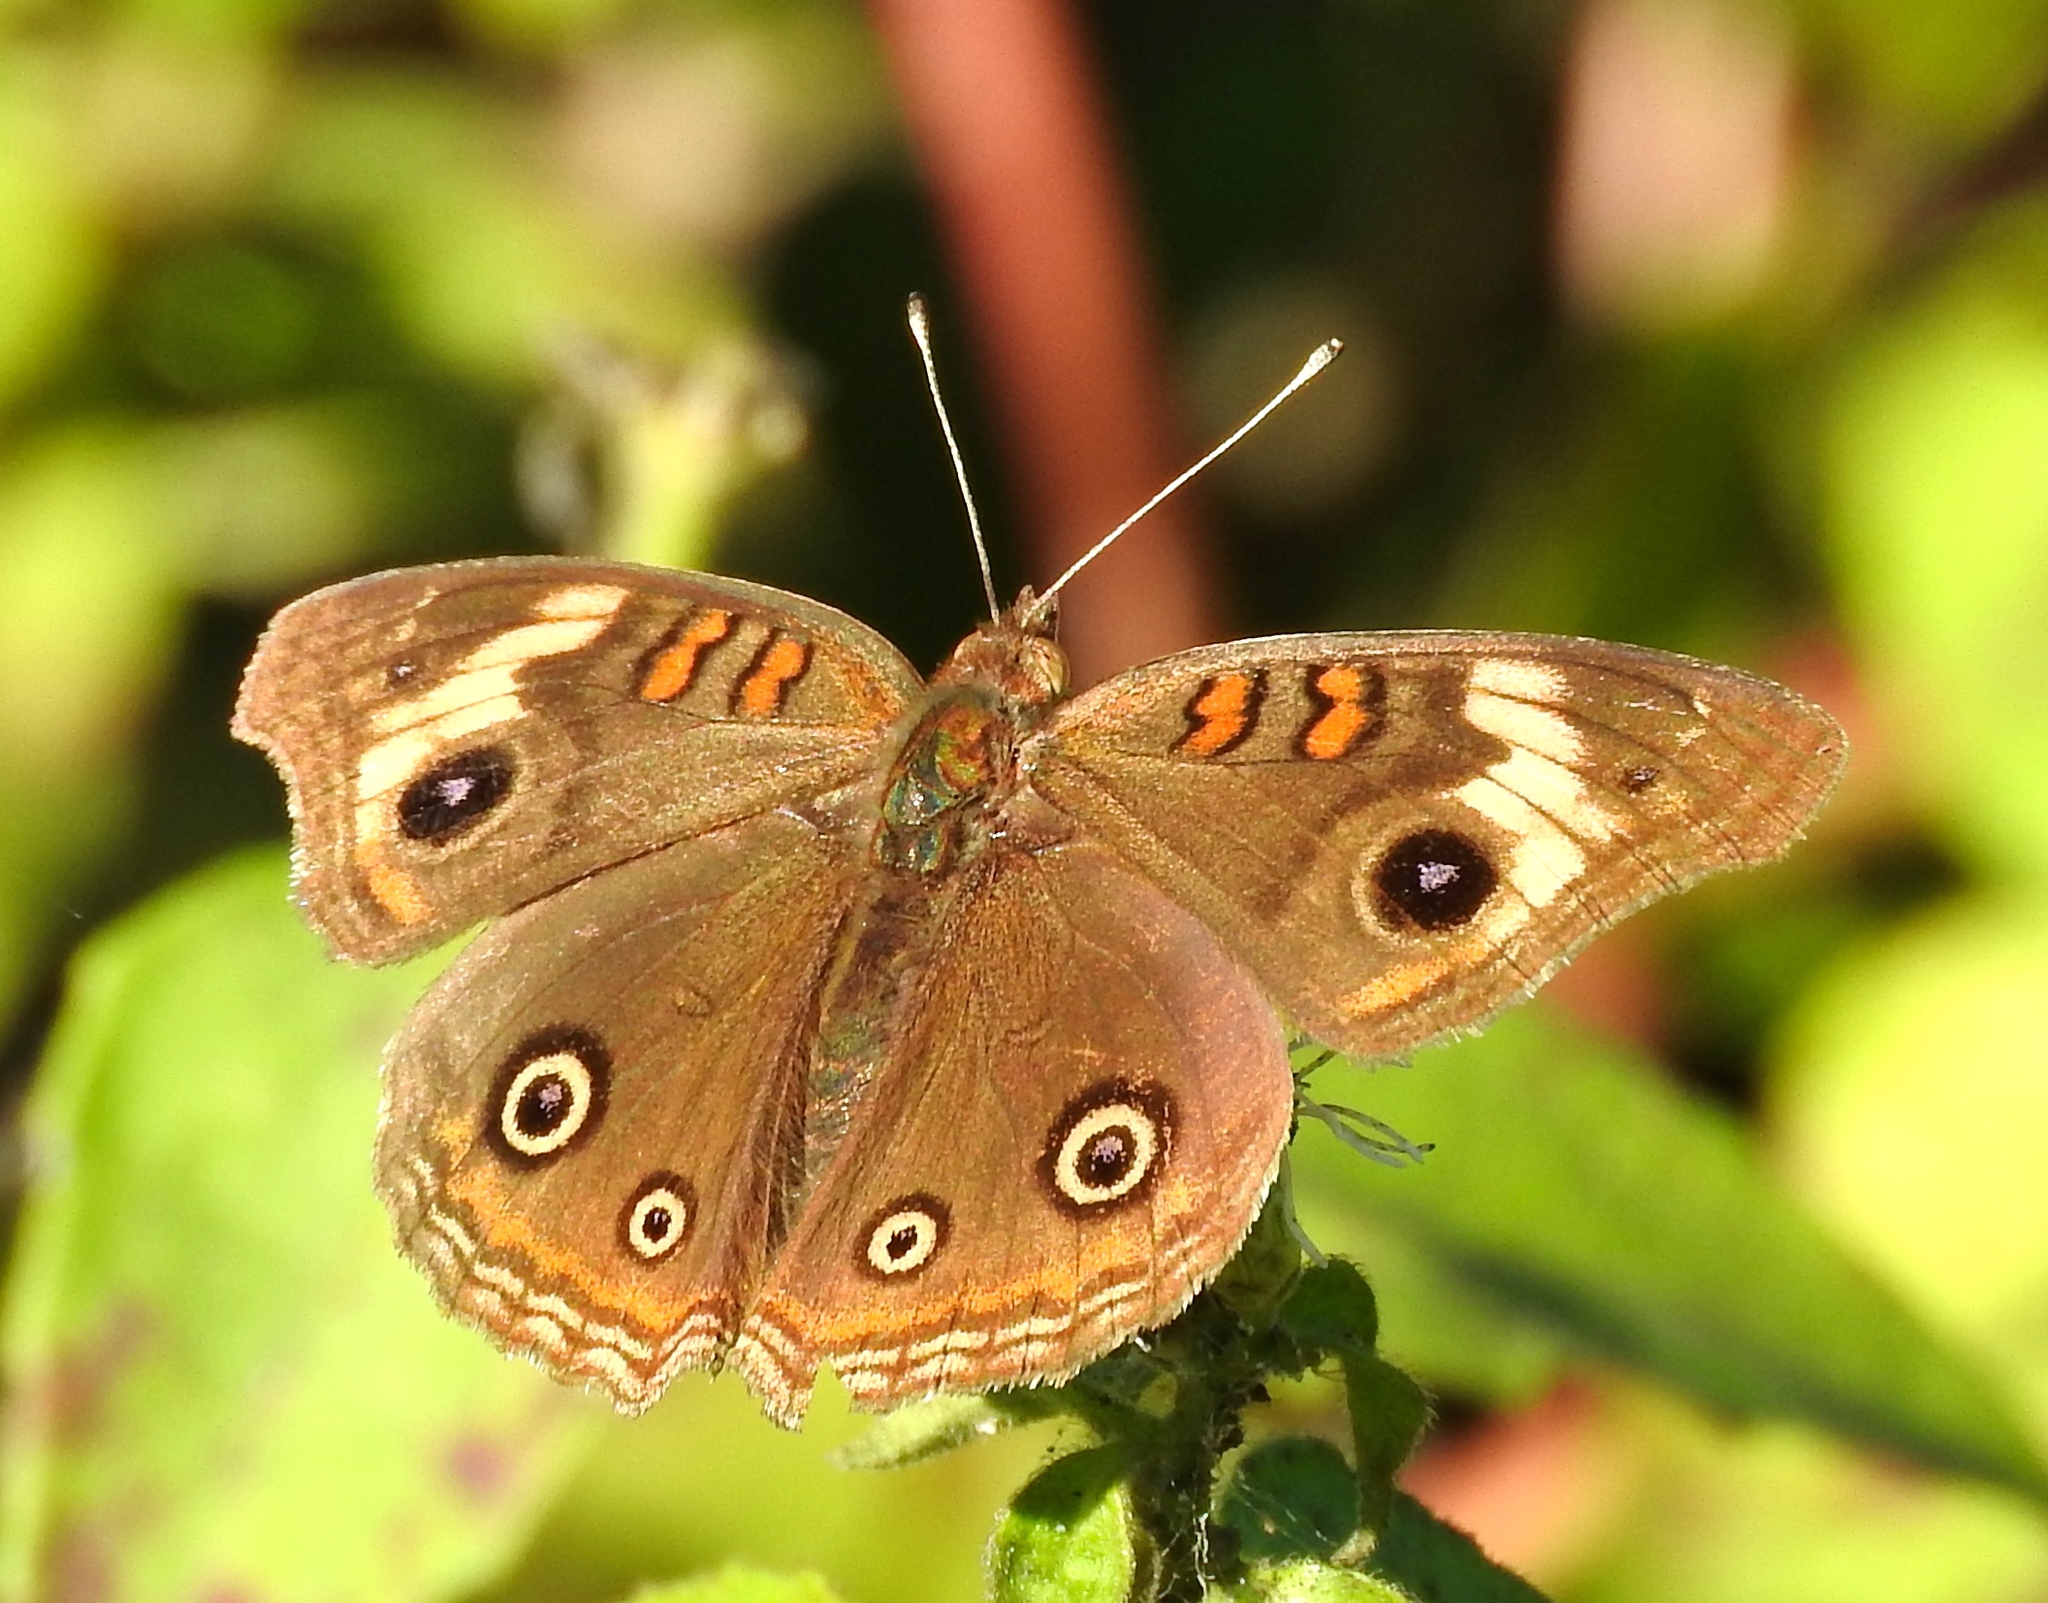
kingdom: Animalia
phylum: Arthropoda
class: Insecta
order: Lepidoptera
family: Nymphalidae
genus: Junonia
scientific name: Junonia coenia
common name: Common buckeye
